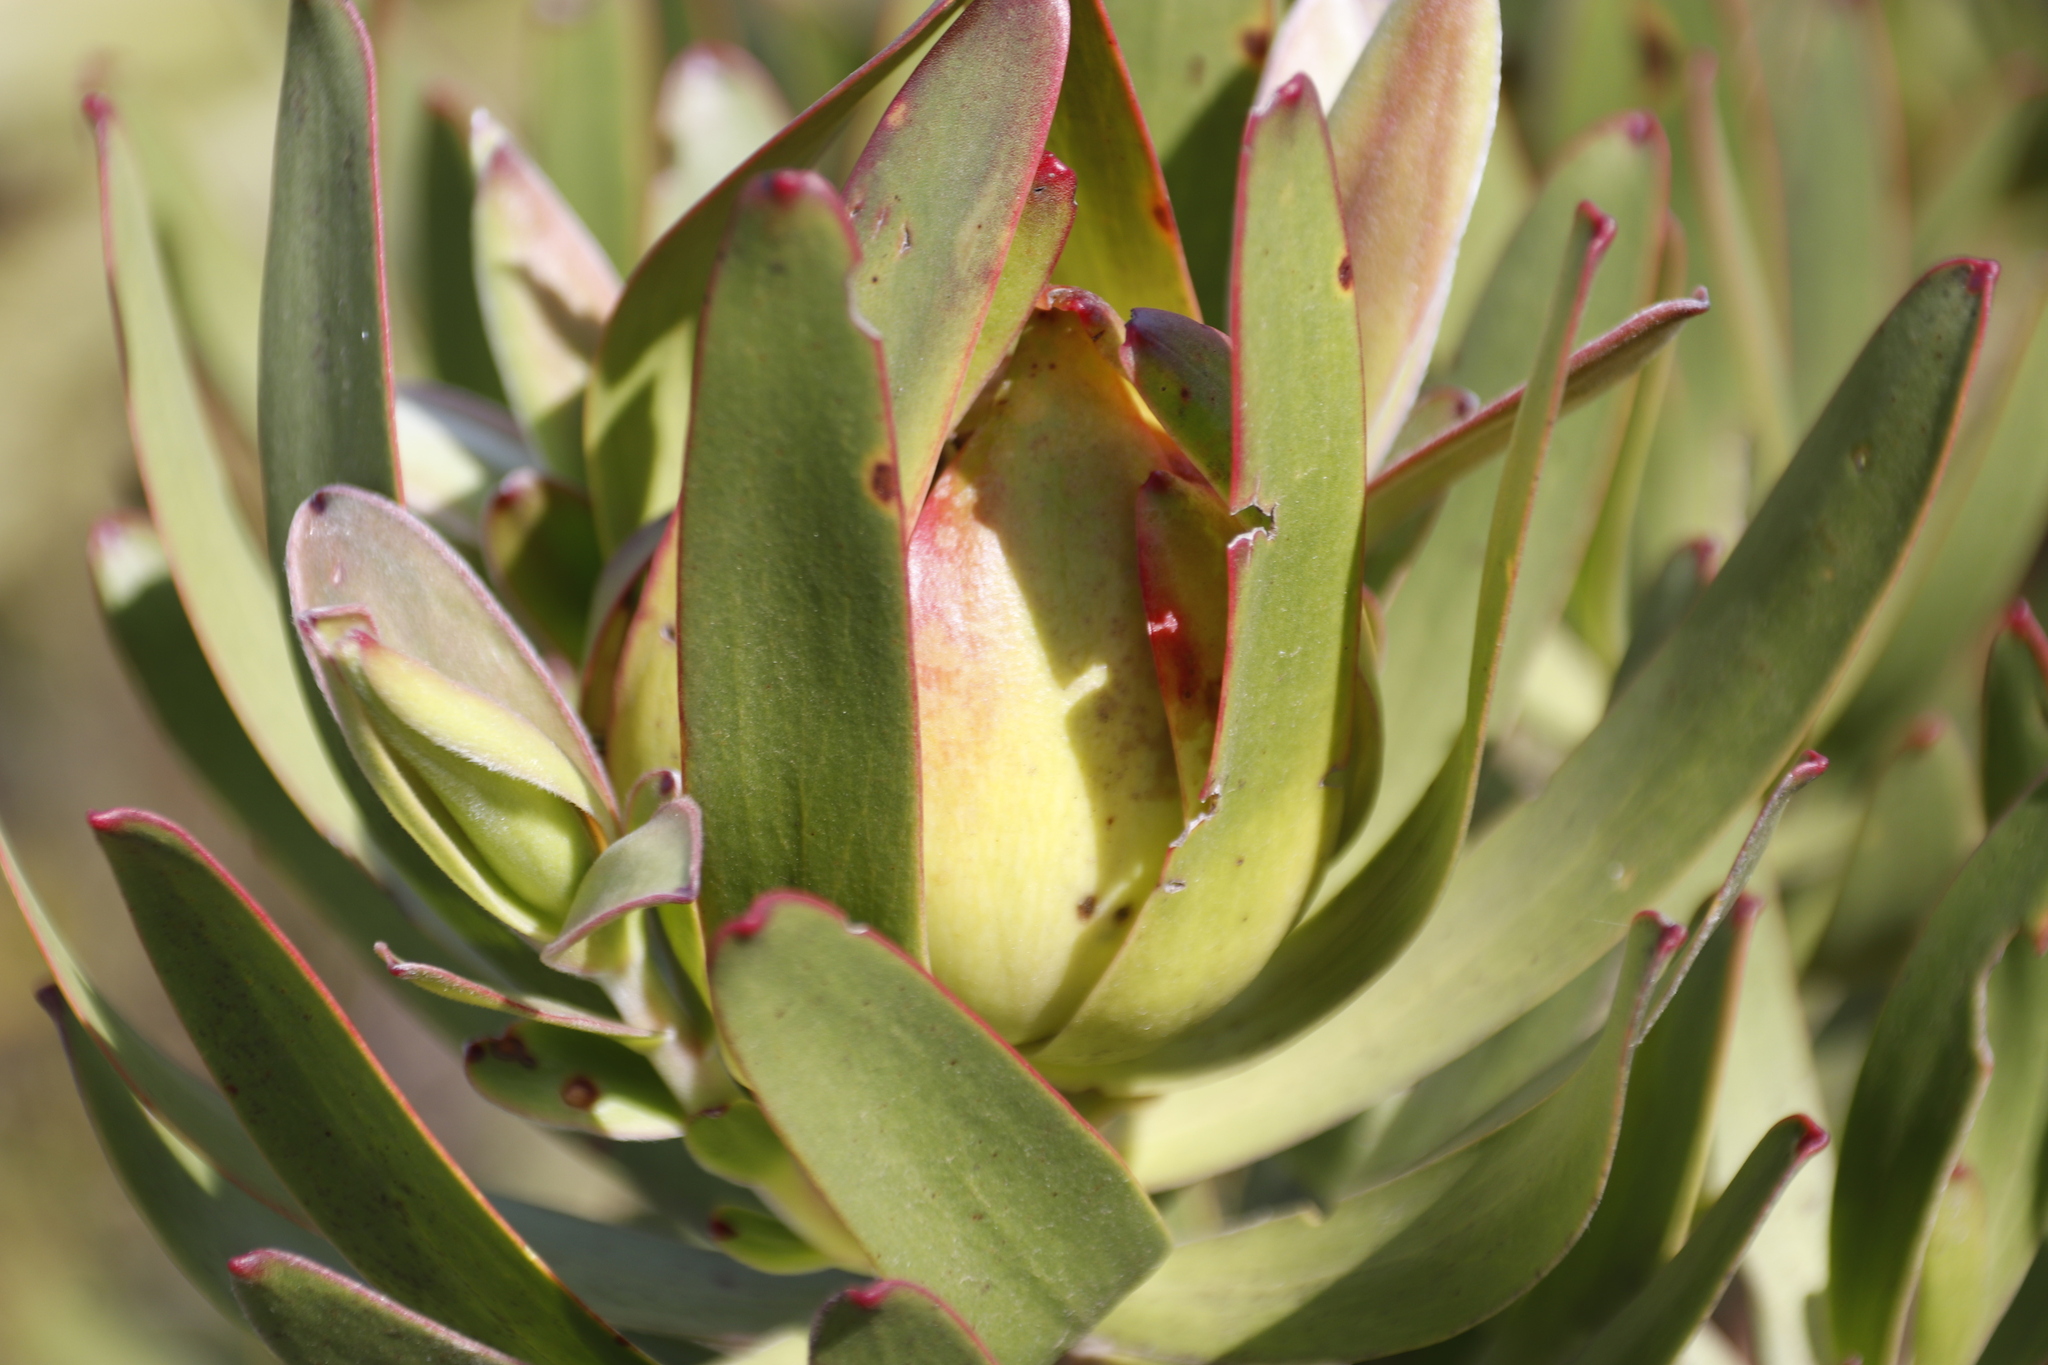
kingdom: Plantae
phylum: Tracheophyta
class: Magnoliopsida
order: Proteales
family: Proteaceae
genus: Leucadendron
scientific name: Leucadendron laureolum
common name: Golden sunshinebush
